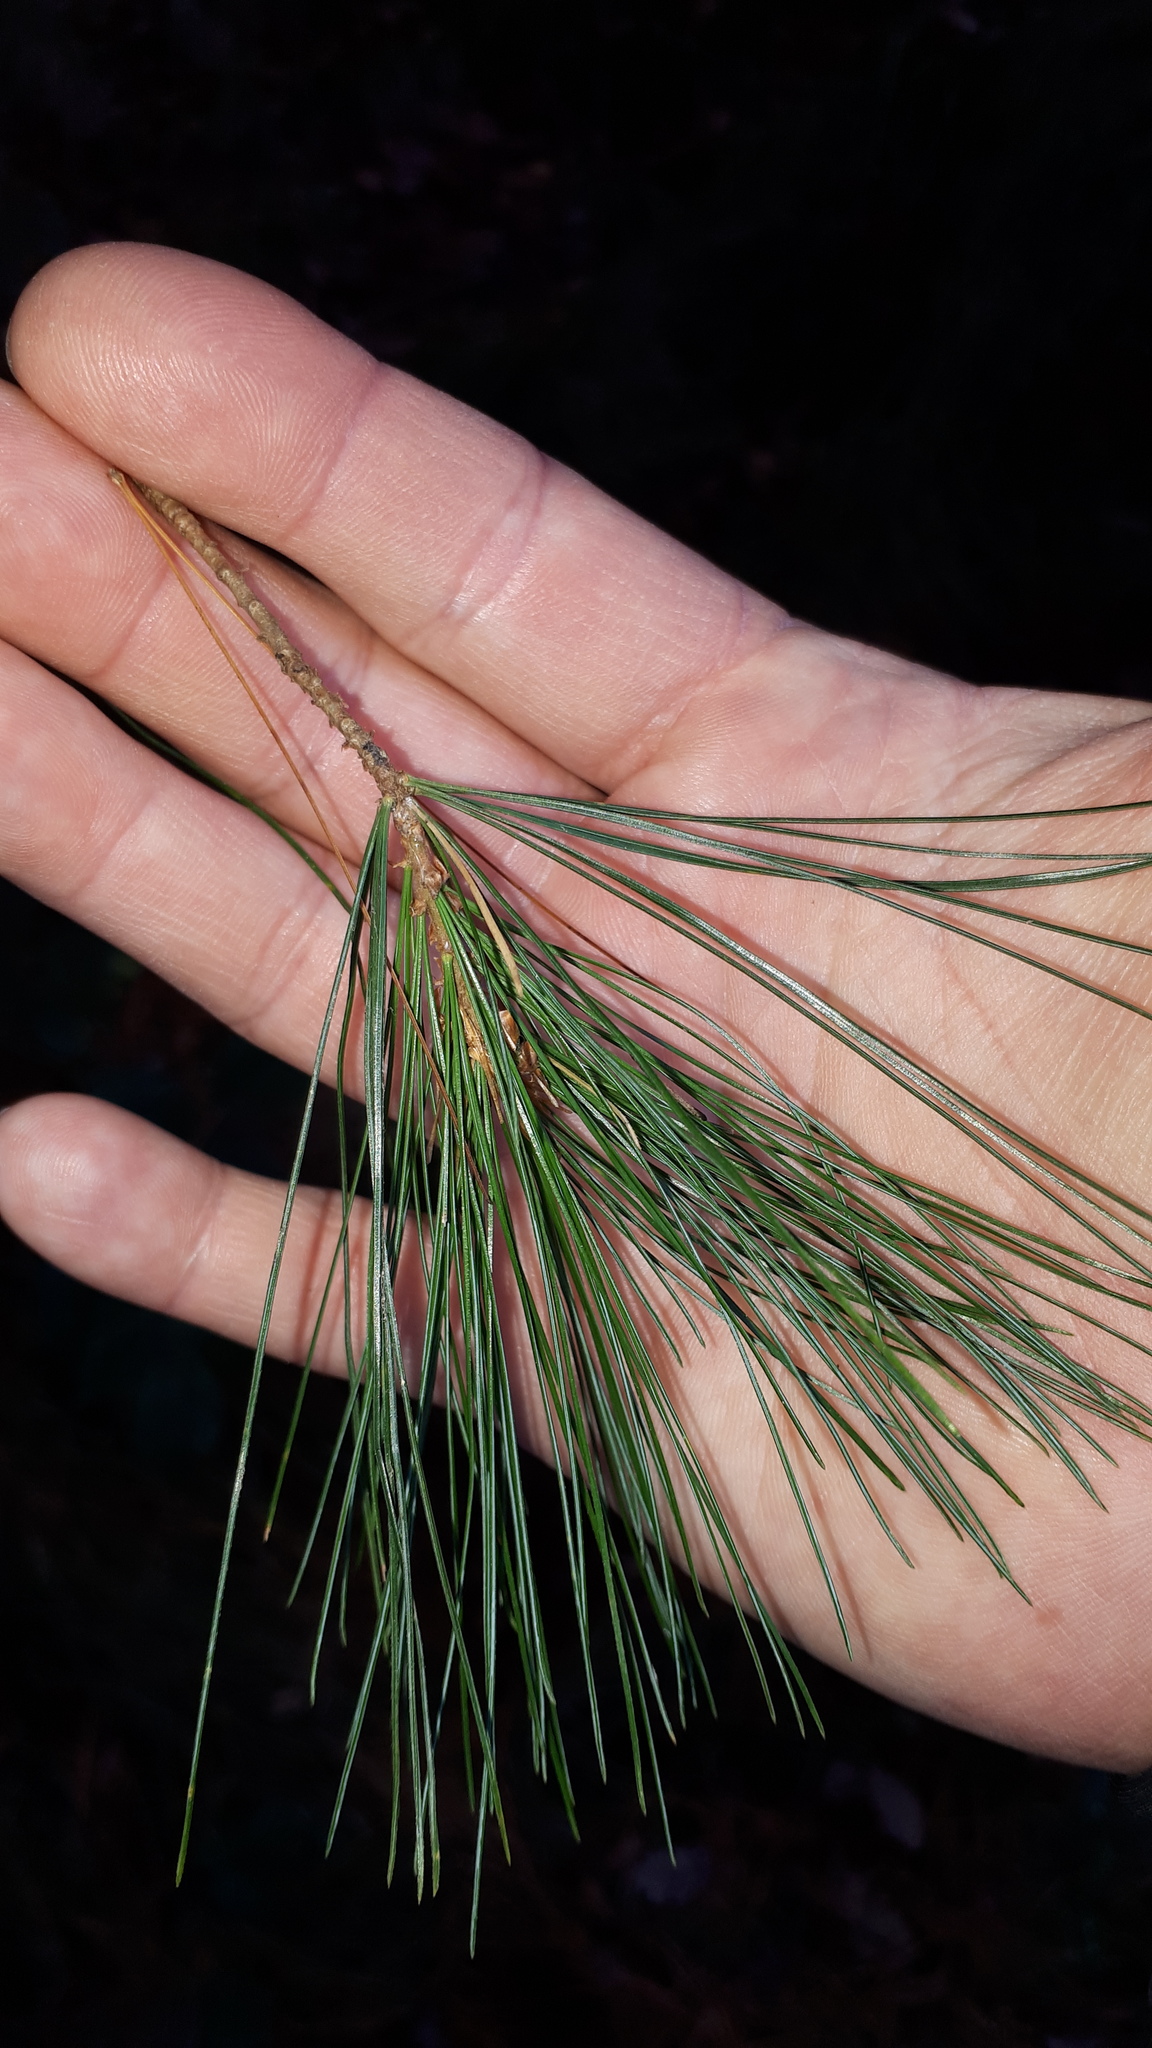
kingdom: Plantae
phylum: Tracheophyta
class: Pinopsida
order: Pinales
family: Pinaceae
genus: Pinus
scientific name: Pinus strobus
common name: Weymouth pine
